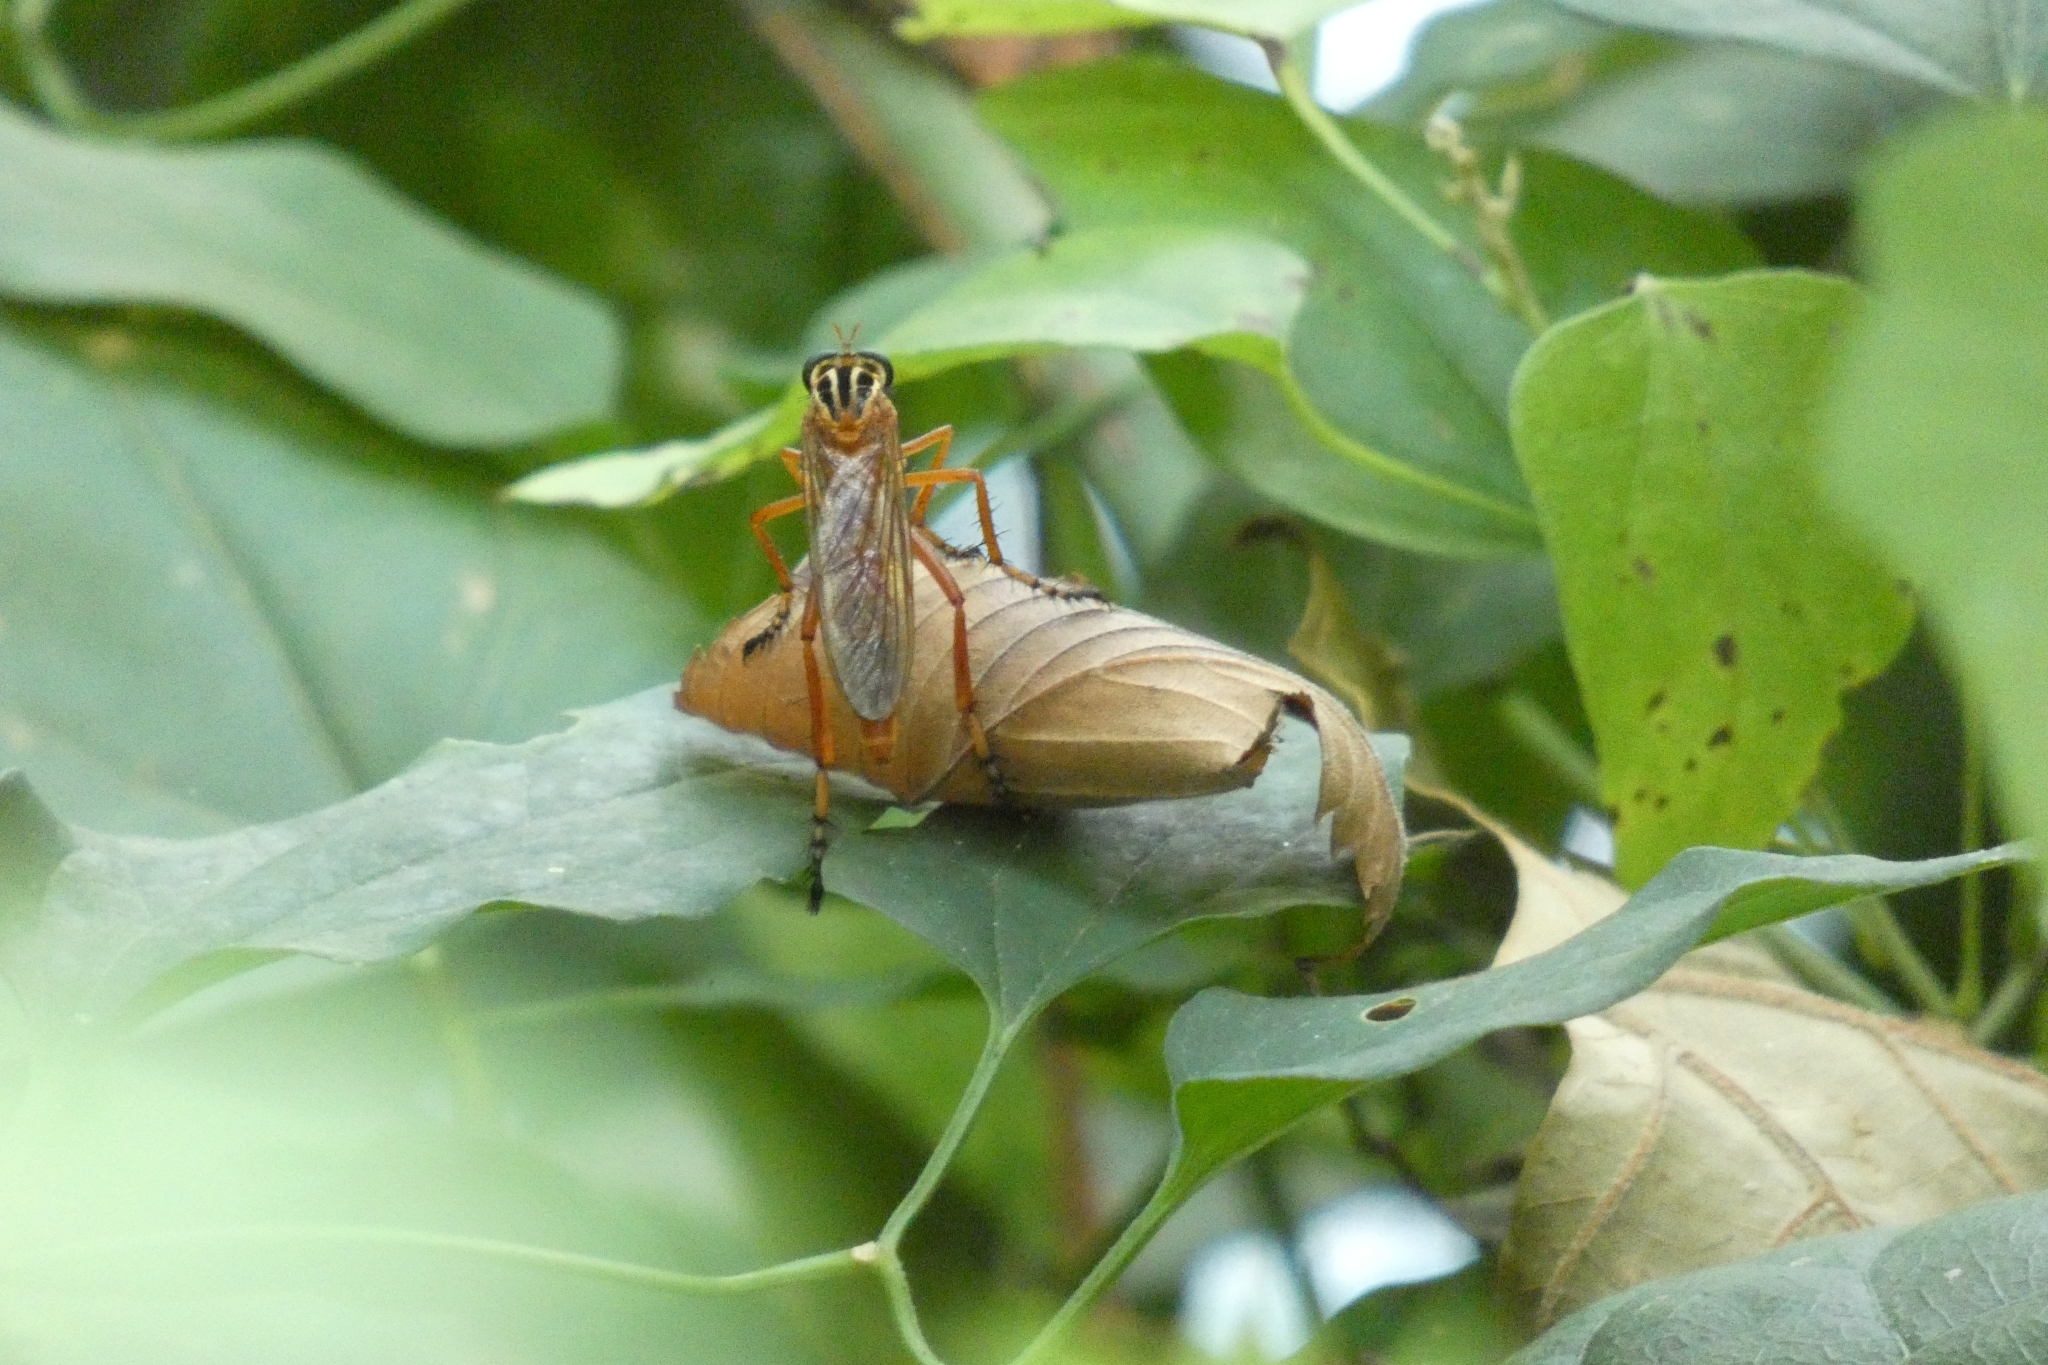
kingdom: Animalia
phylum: Arthropoda
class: Insecta
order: Diptera
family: Asilidae
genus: Diogmites
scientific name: Diogmites neoternatus
